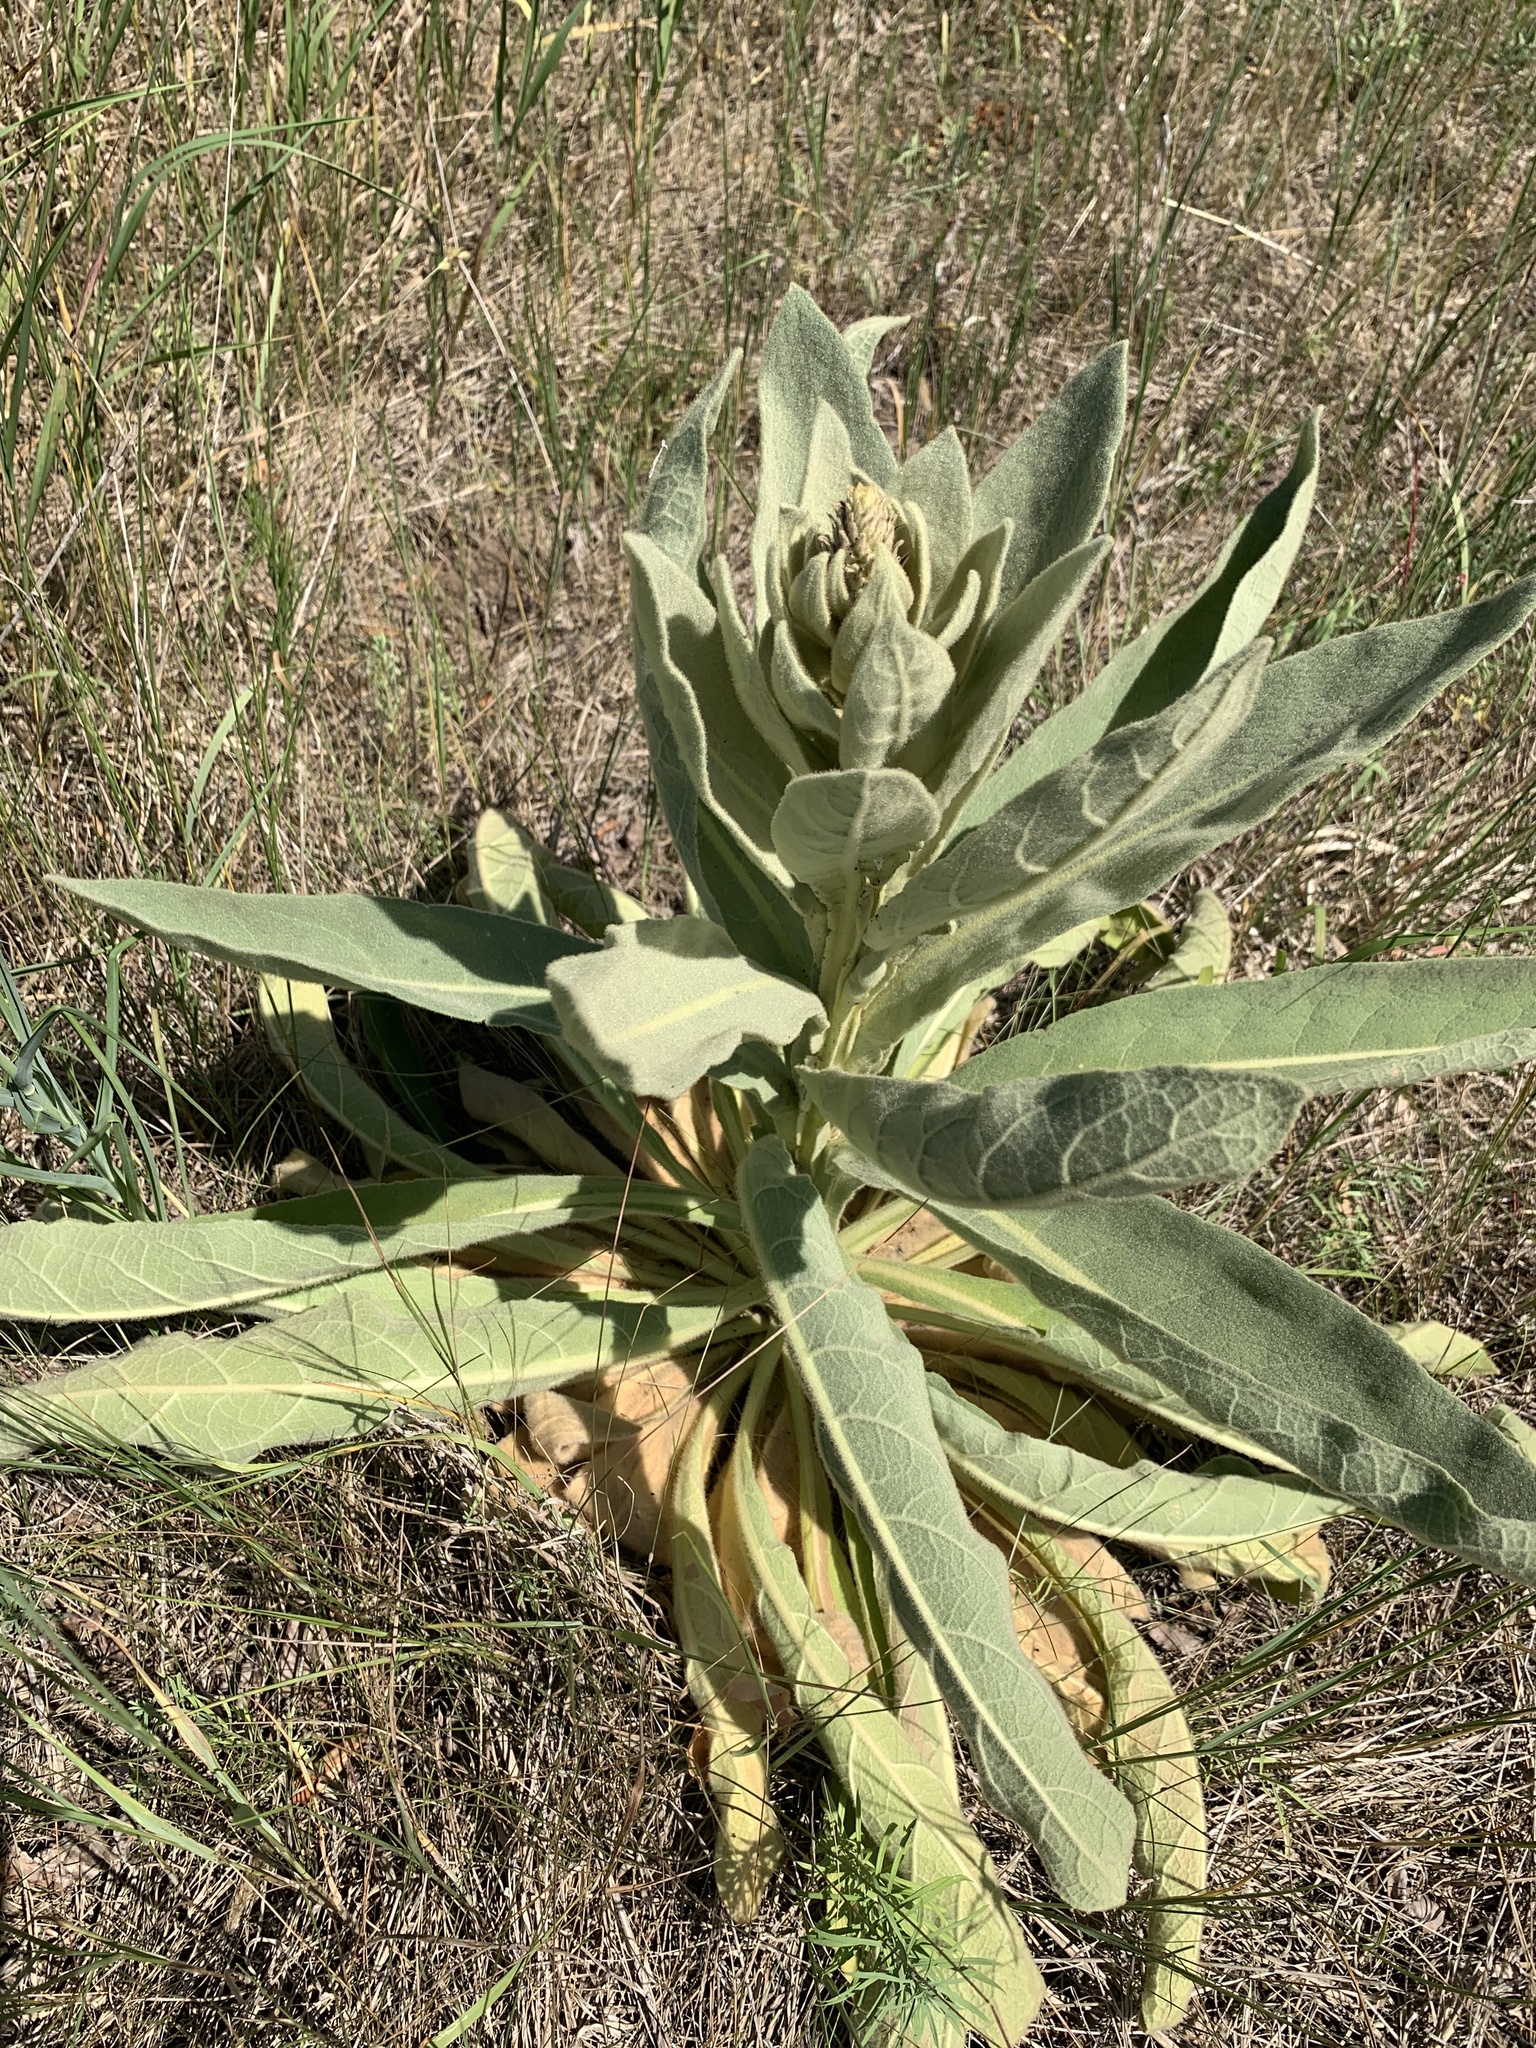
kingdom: Plantae
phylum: Tracheophyta
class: Magnoliopsida
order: Lamiales
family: Scrophulariaceae
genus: Verbascum
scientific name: Verbascum thapsus
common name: Common mullein
